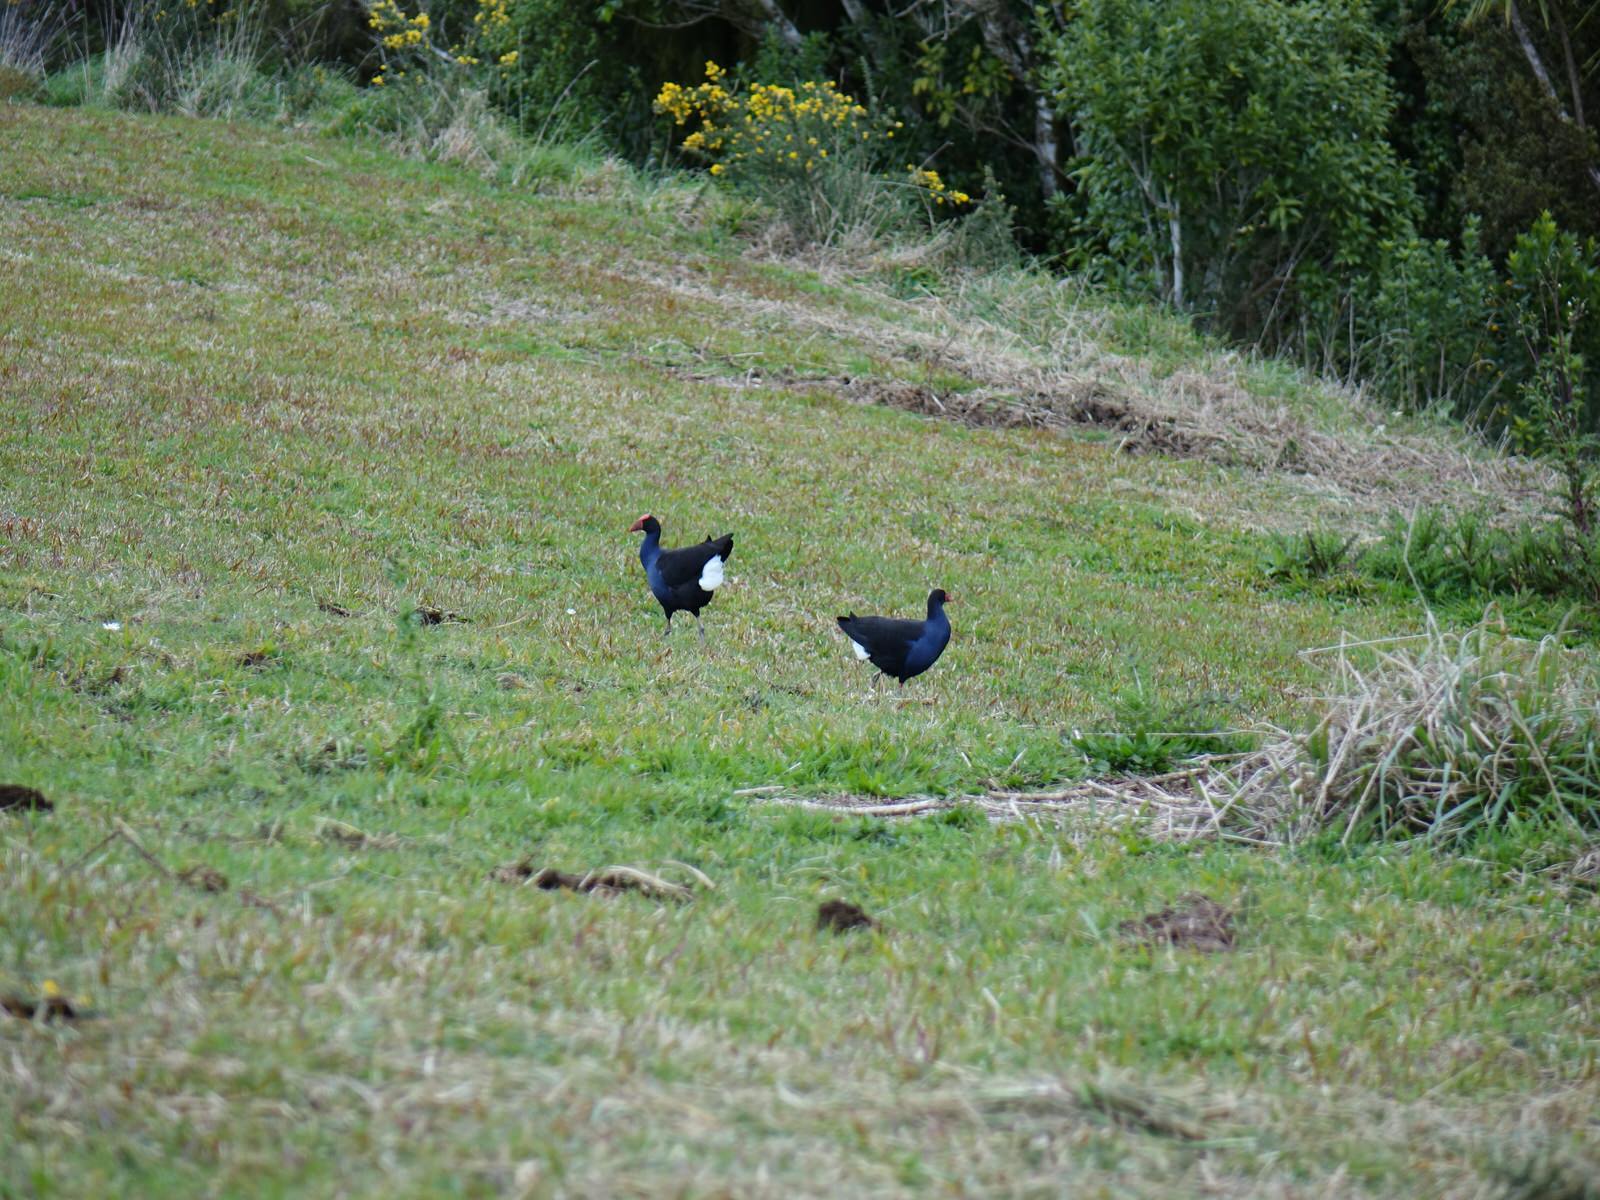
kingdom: Animalia
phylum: Chordata
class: Aves
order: Gruiformes
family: Rallidae
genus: Porphyrio
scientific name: Porphyrio melanotus
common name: Australasian swamphen
